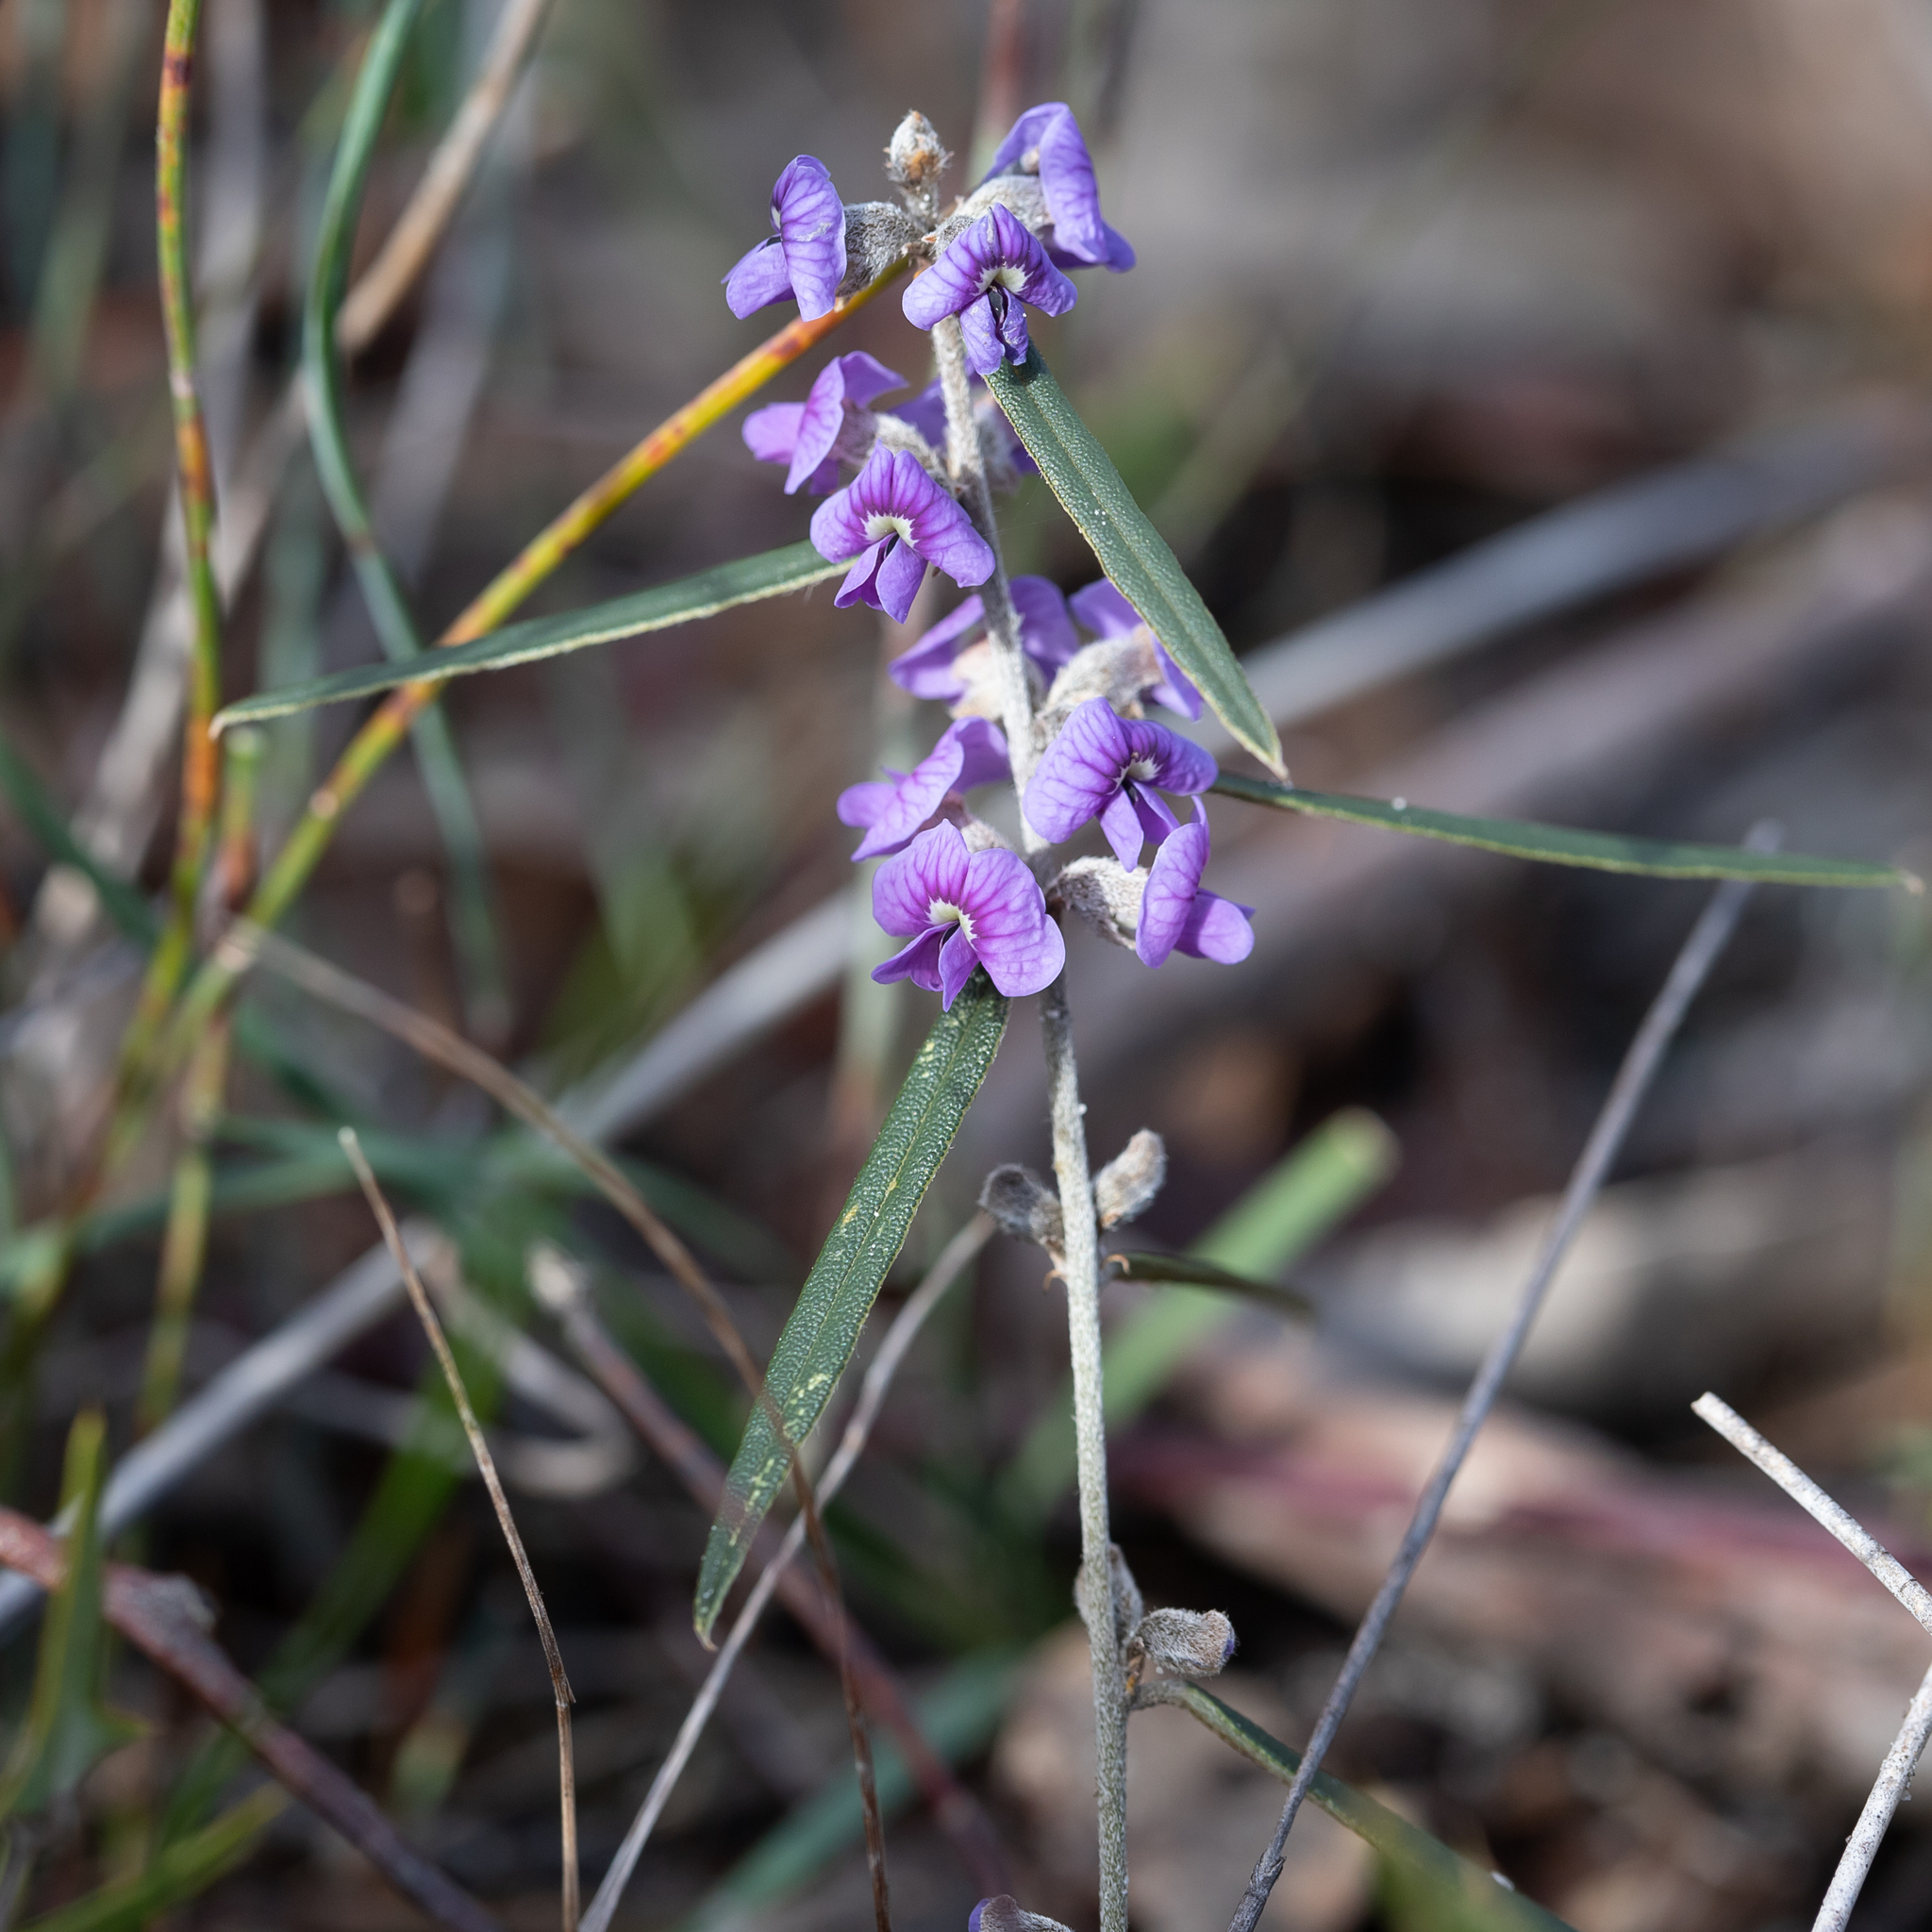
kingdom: Plantae
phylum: Tracheophyta
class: Magnoliopsida
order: Fabales
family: Fabaceae
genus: Hovea
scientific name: Hovea heterophylla
